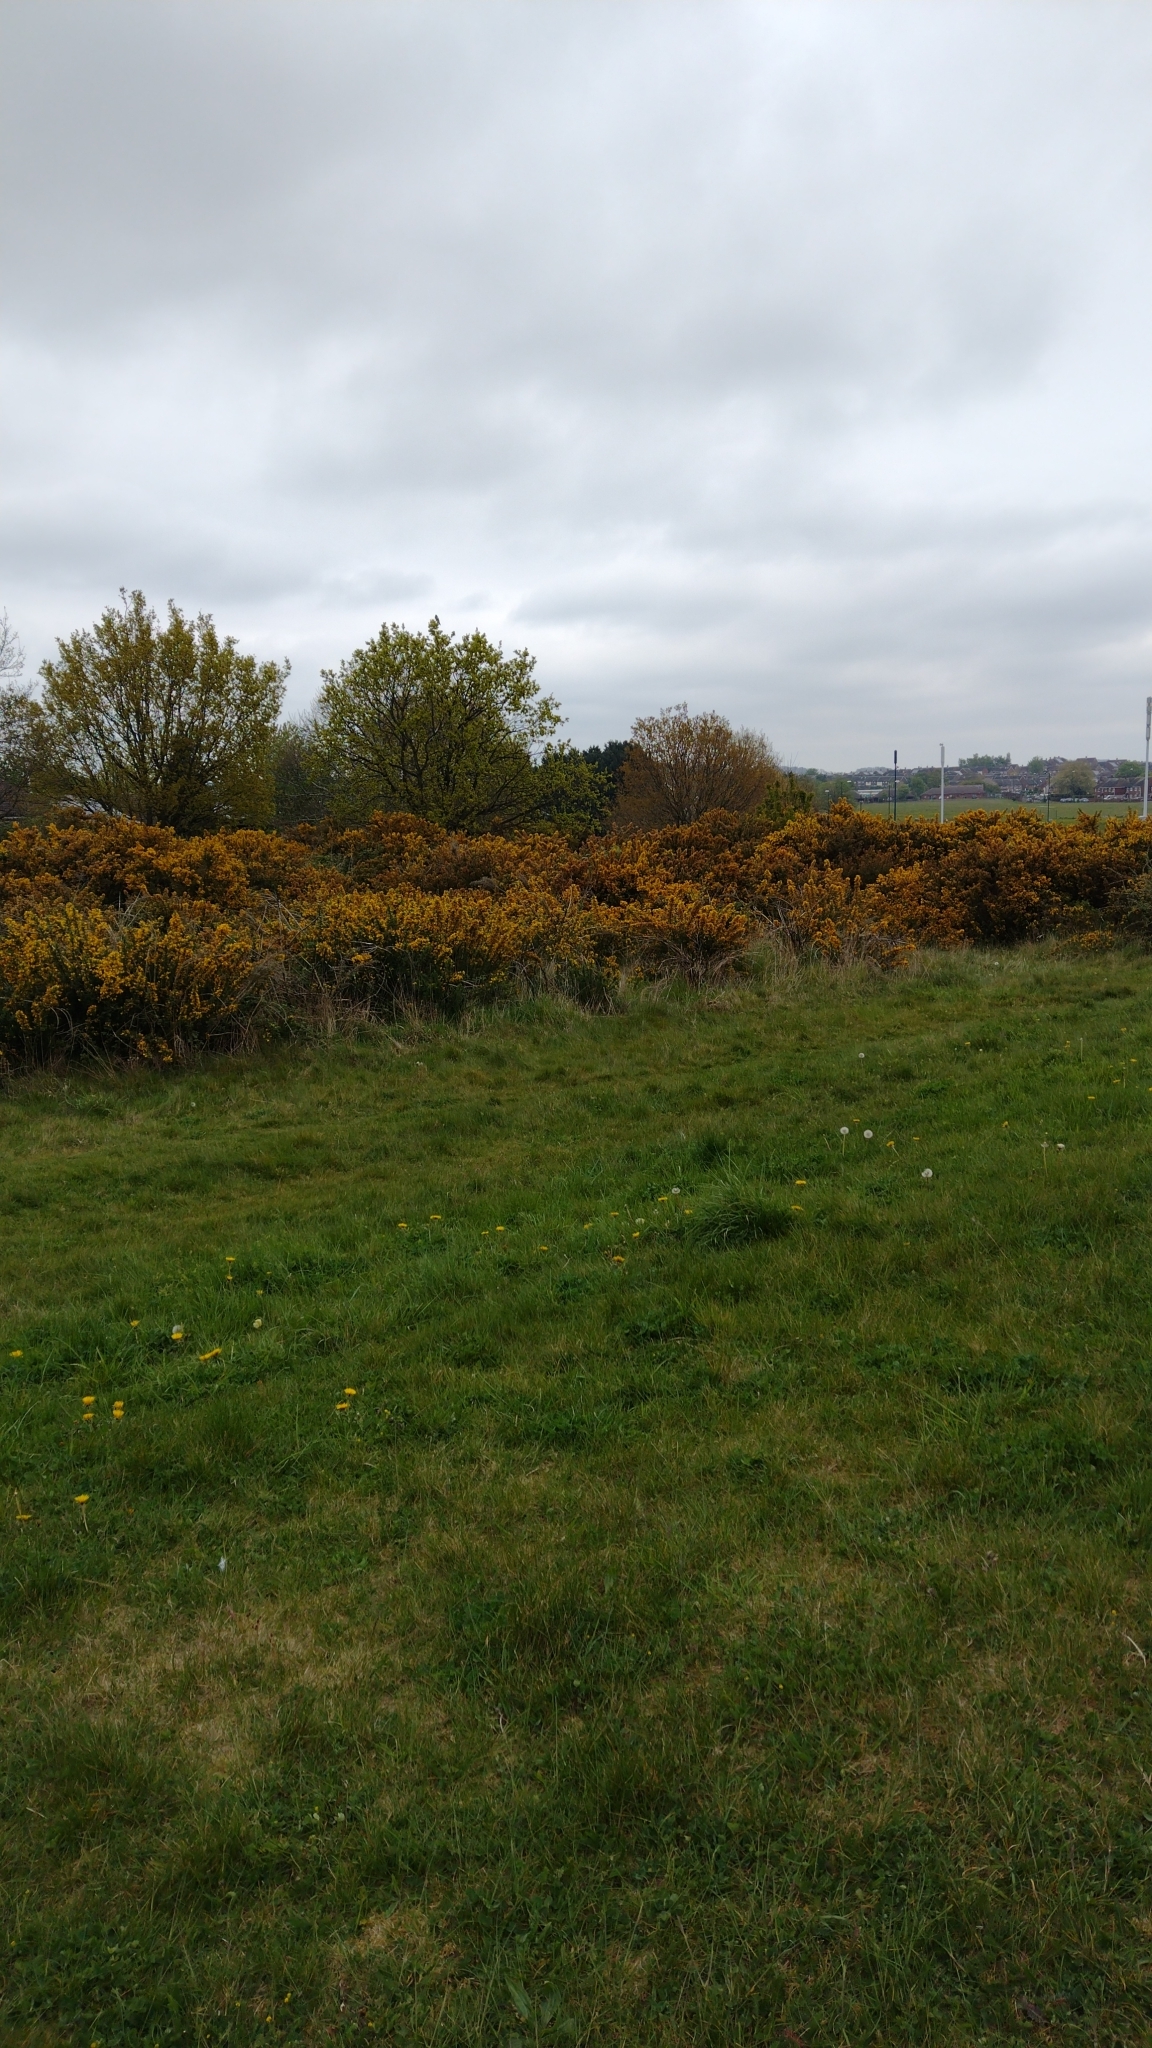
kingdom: Plantae
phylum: Tracheophyta
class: Magnoliopsida
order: Fabales
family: Fabaceae
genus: Ulex
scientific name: Ulex europaeus
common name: Common gorse
